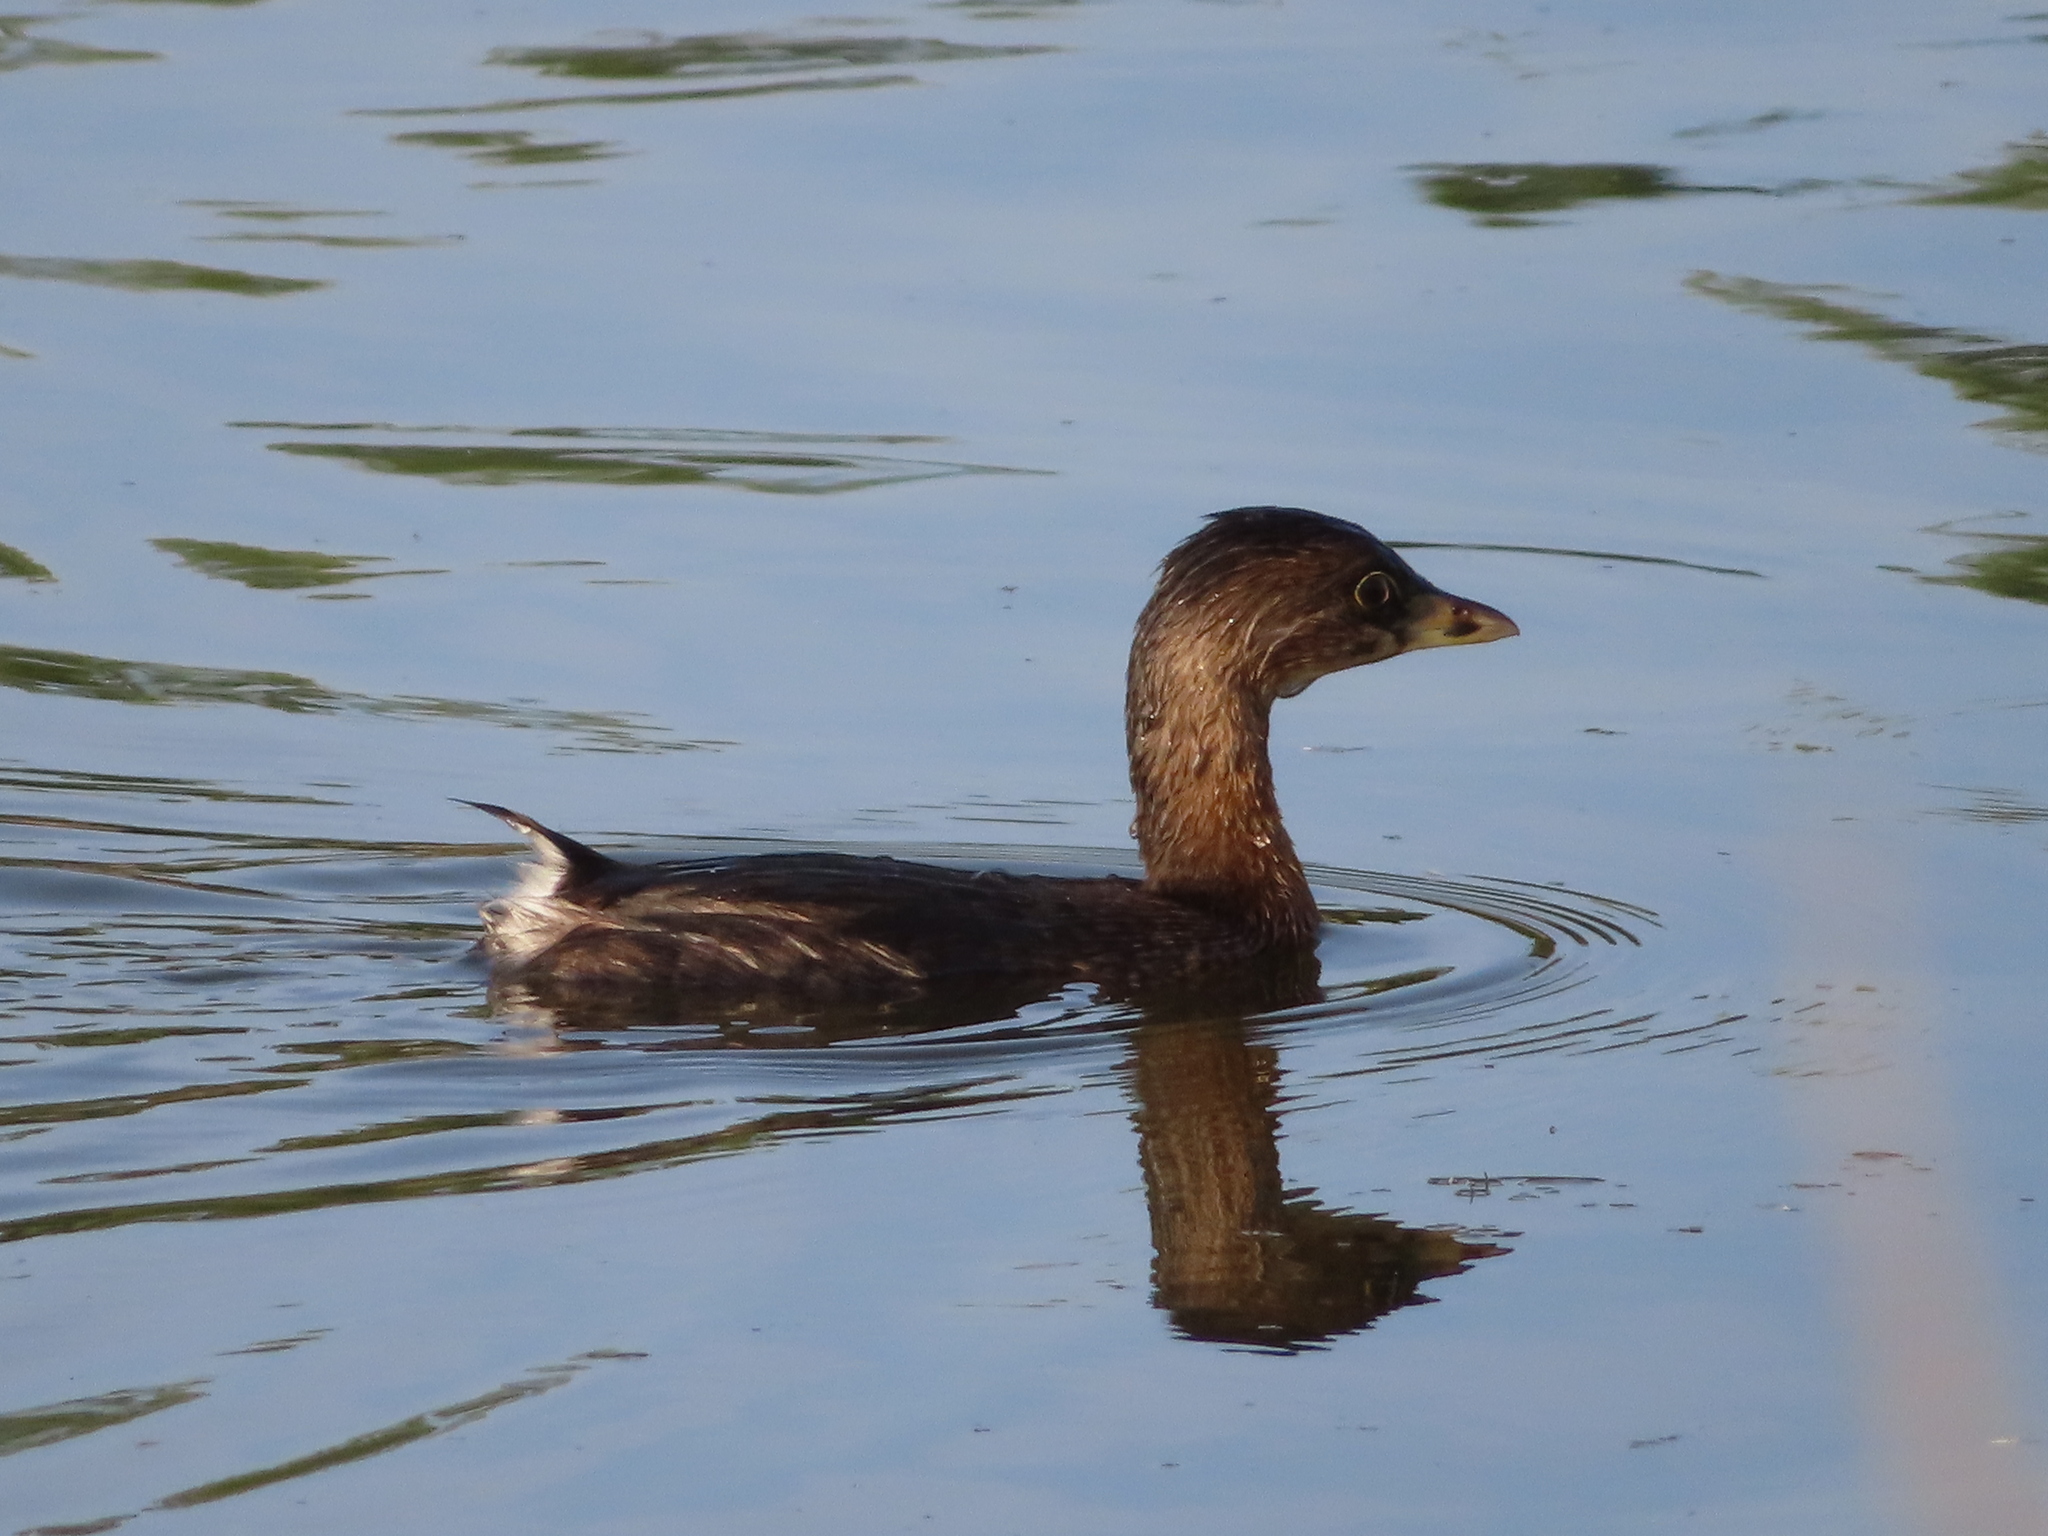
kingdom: Animalia
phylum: Chordata
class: Aves
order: Podicipediformes
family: Podicipedidae
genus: Podilymbus
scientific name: Podilymbus podiceps
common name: Pied-billed grebe
